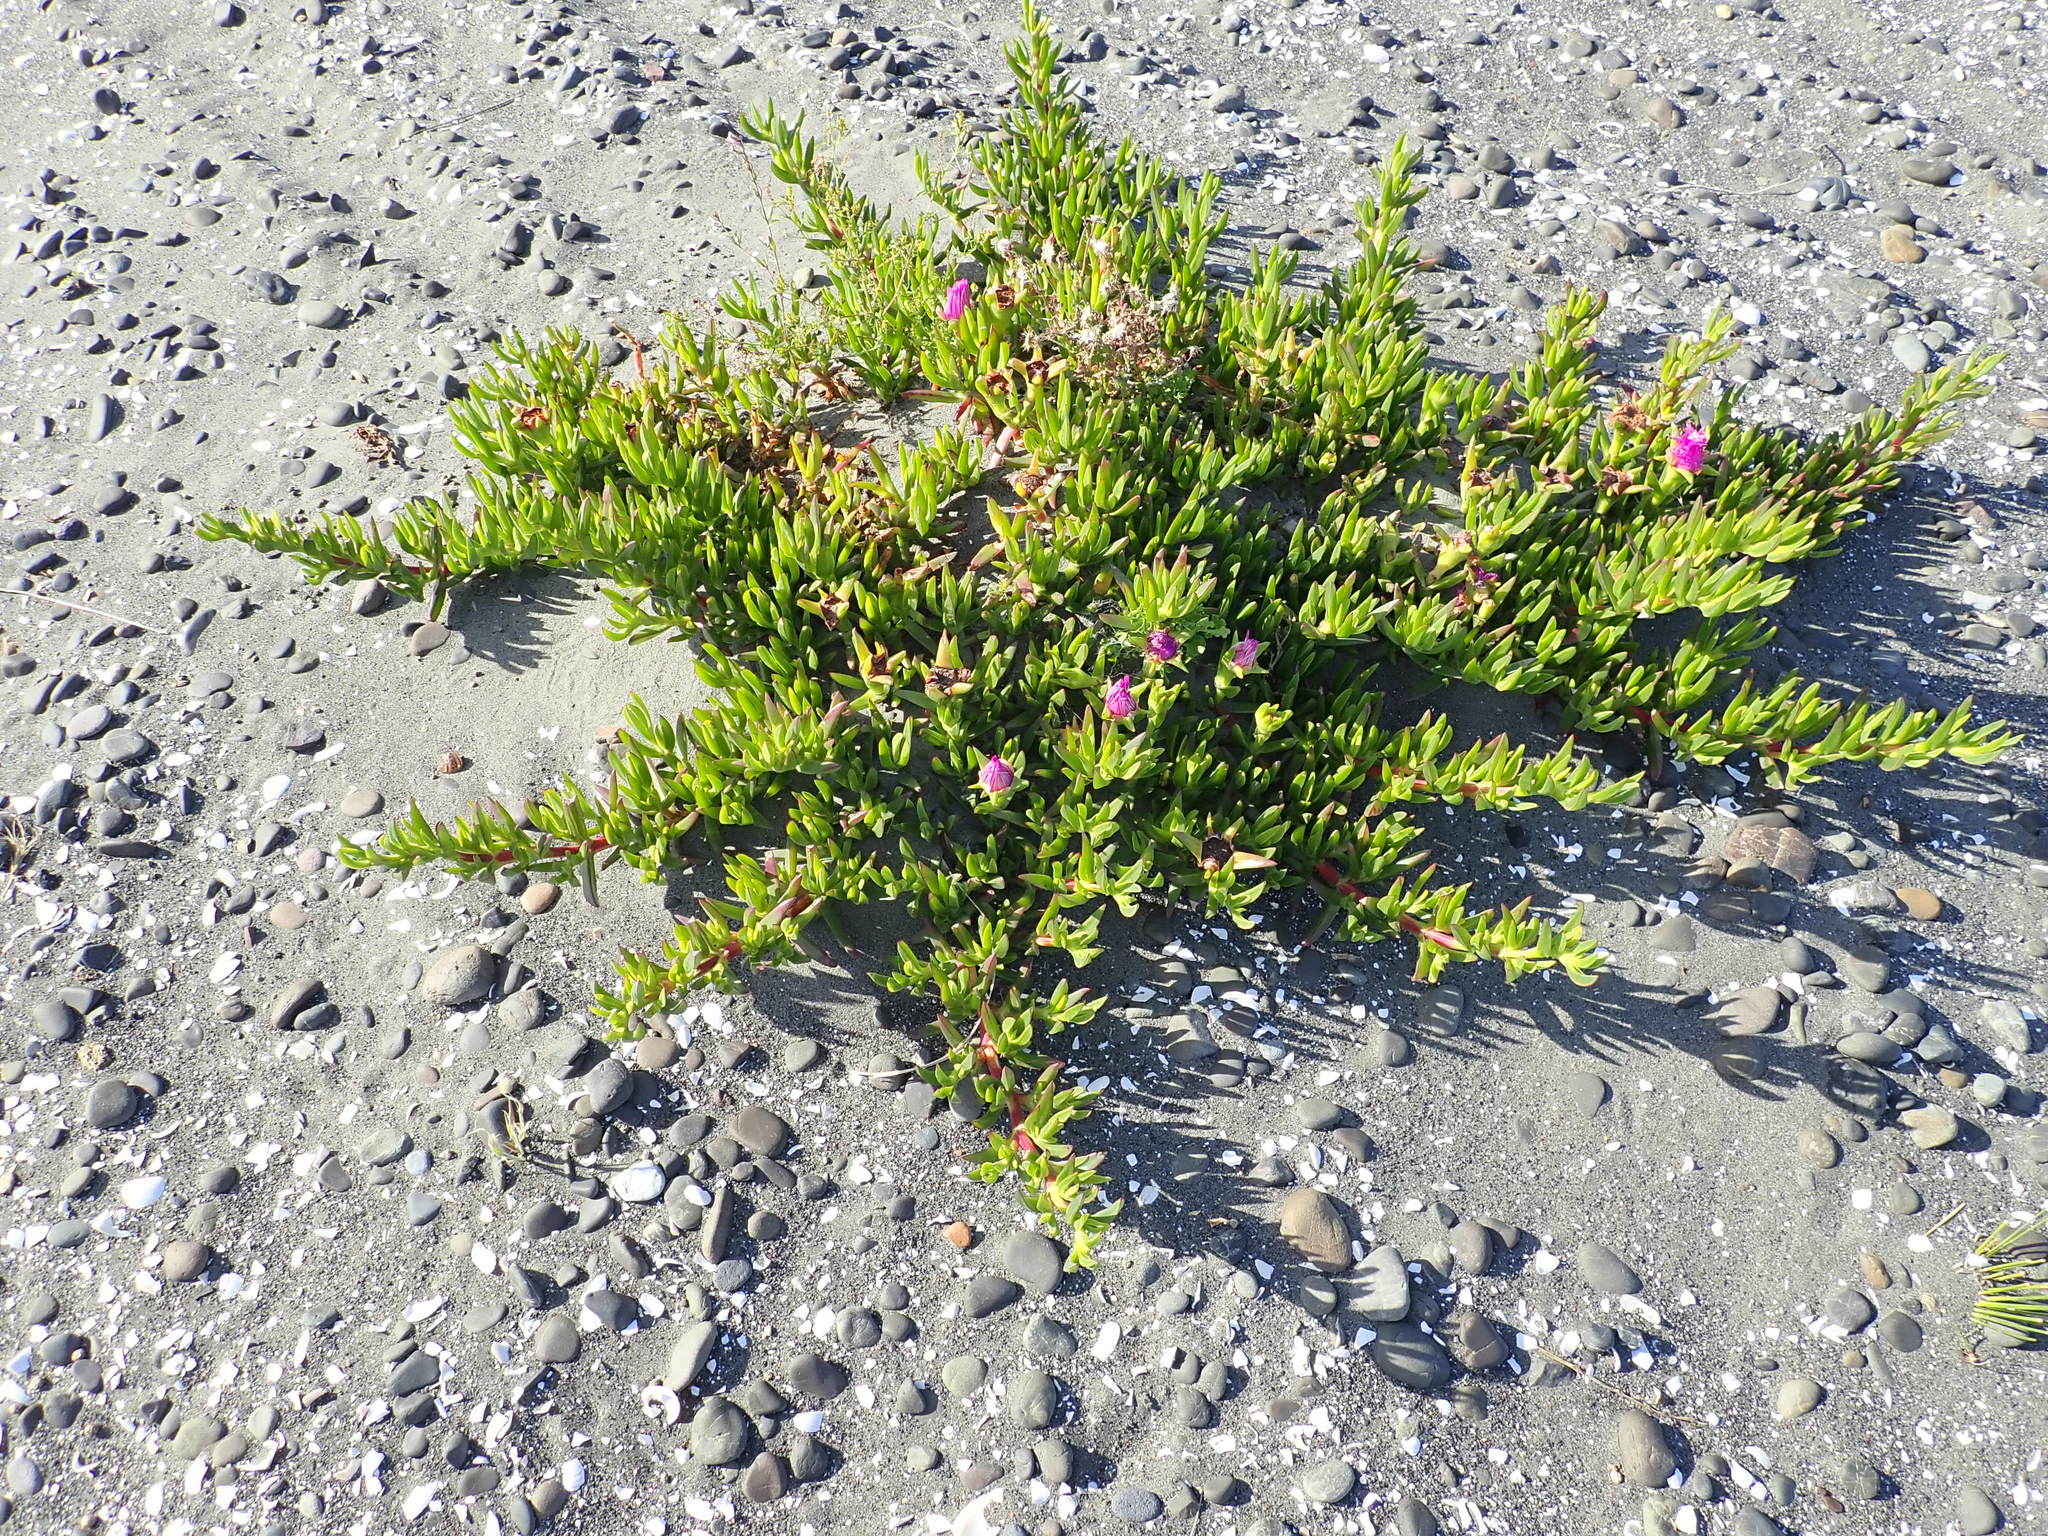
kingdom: Plantae
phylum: Tracheophyta
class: Magnoliopsida
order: Caryophyllales
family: Aizoaceae
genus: Carpobrotus
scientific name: Carpobrotus chilensis
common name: Sea fig
